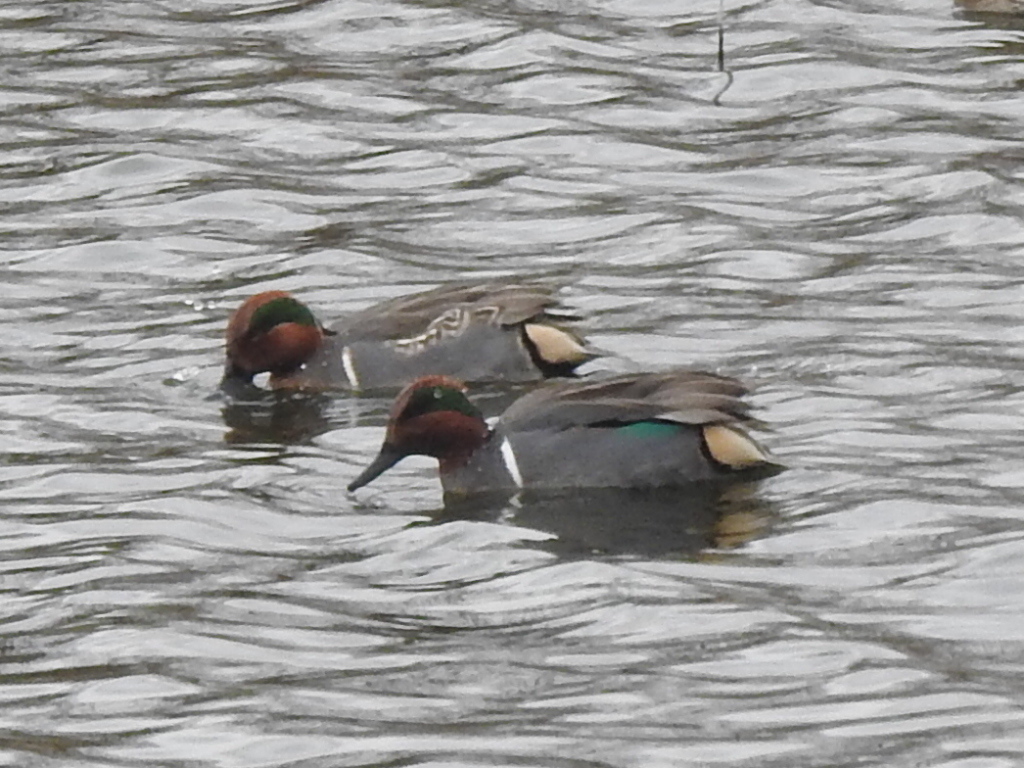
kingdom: Animalia
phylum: Chordata
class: Aves
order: Anseriformes
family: Anatidae
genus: Anas
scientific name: Anas crecca
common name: Eurasian teal
